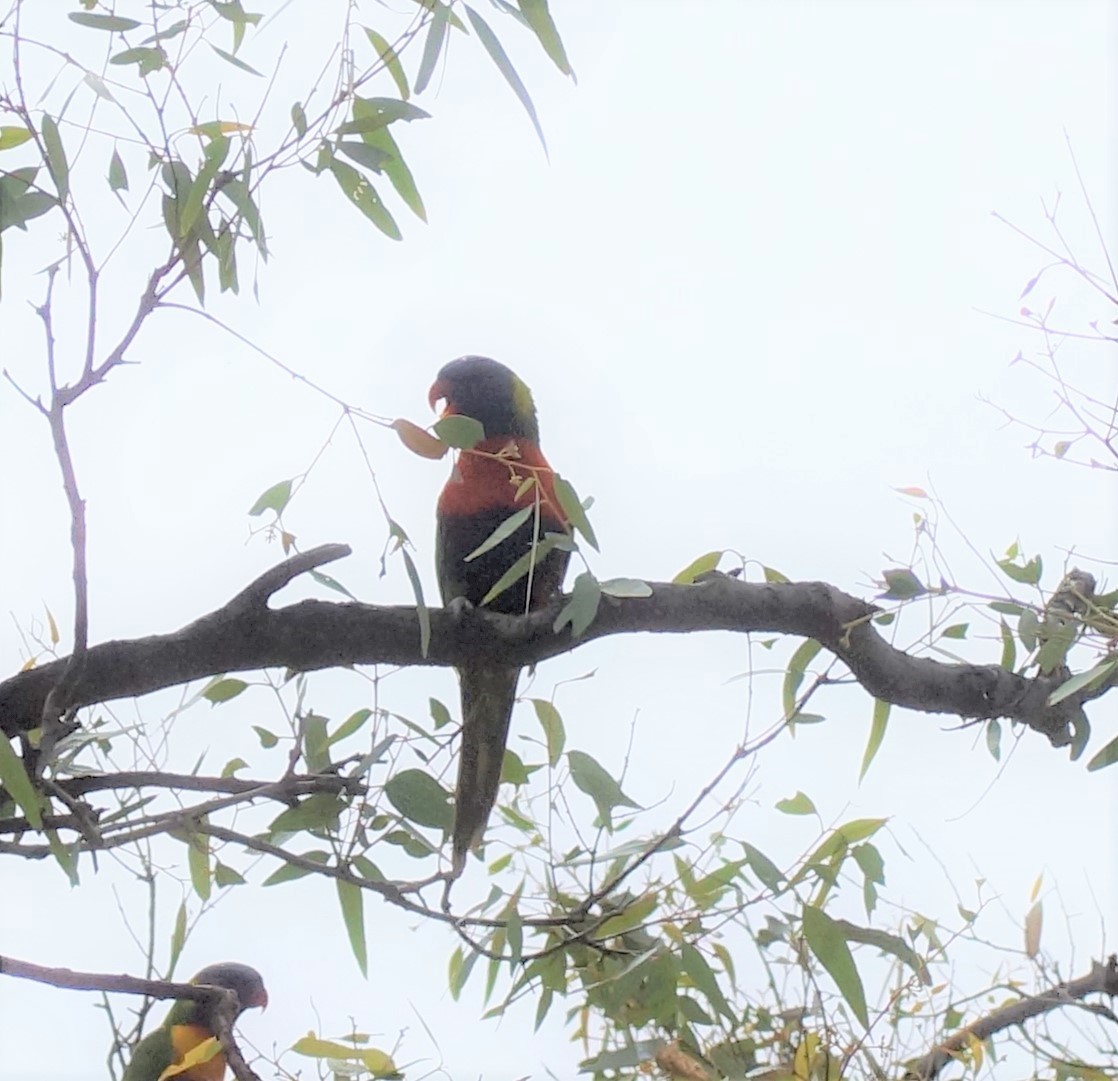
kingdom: Animalia
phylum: Chordata
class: Aves
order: Psittaciformes
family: Psittacidae
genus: Trichoglossus
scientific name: Trichoglossus haematodus
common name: Coconut lorikeet
